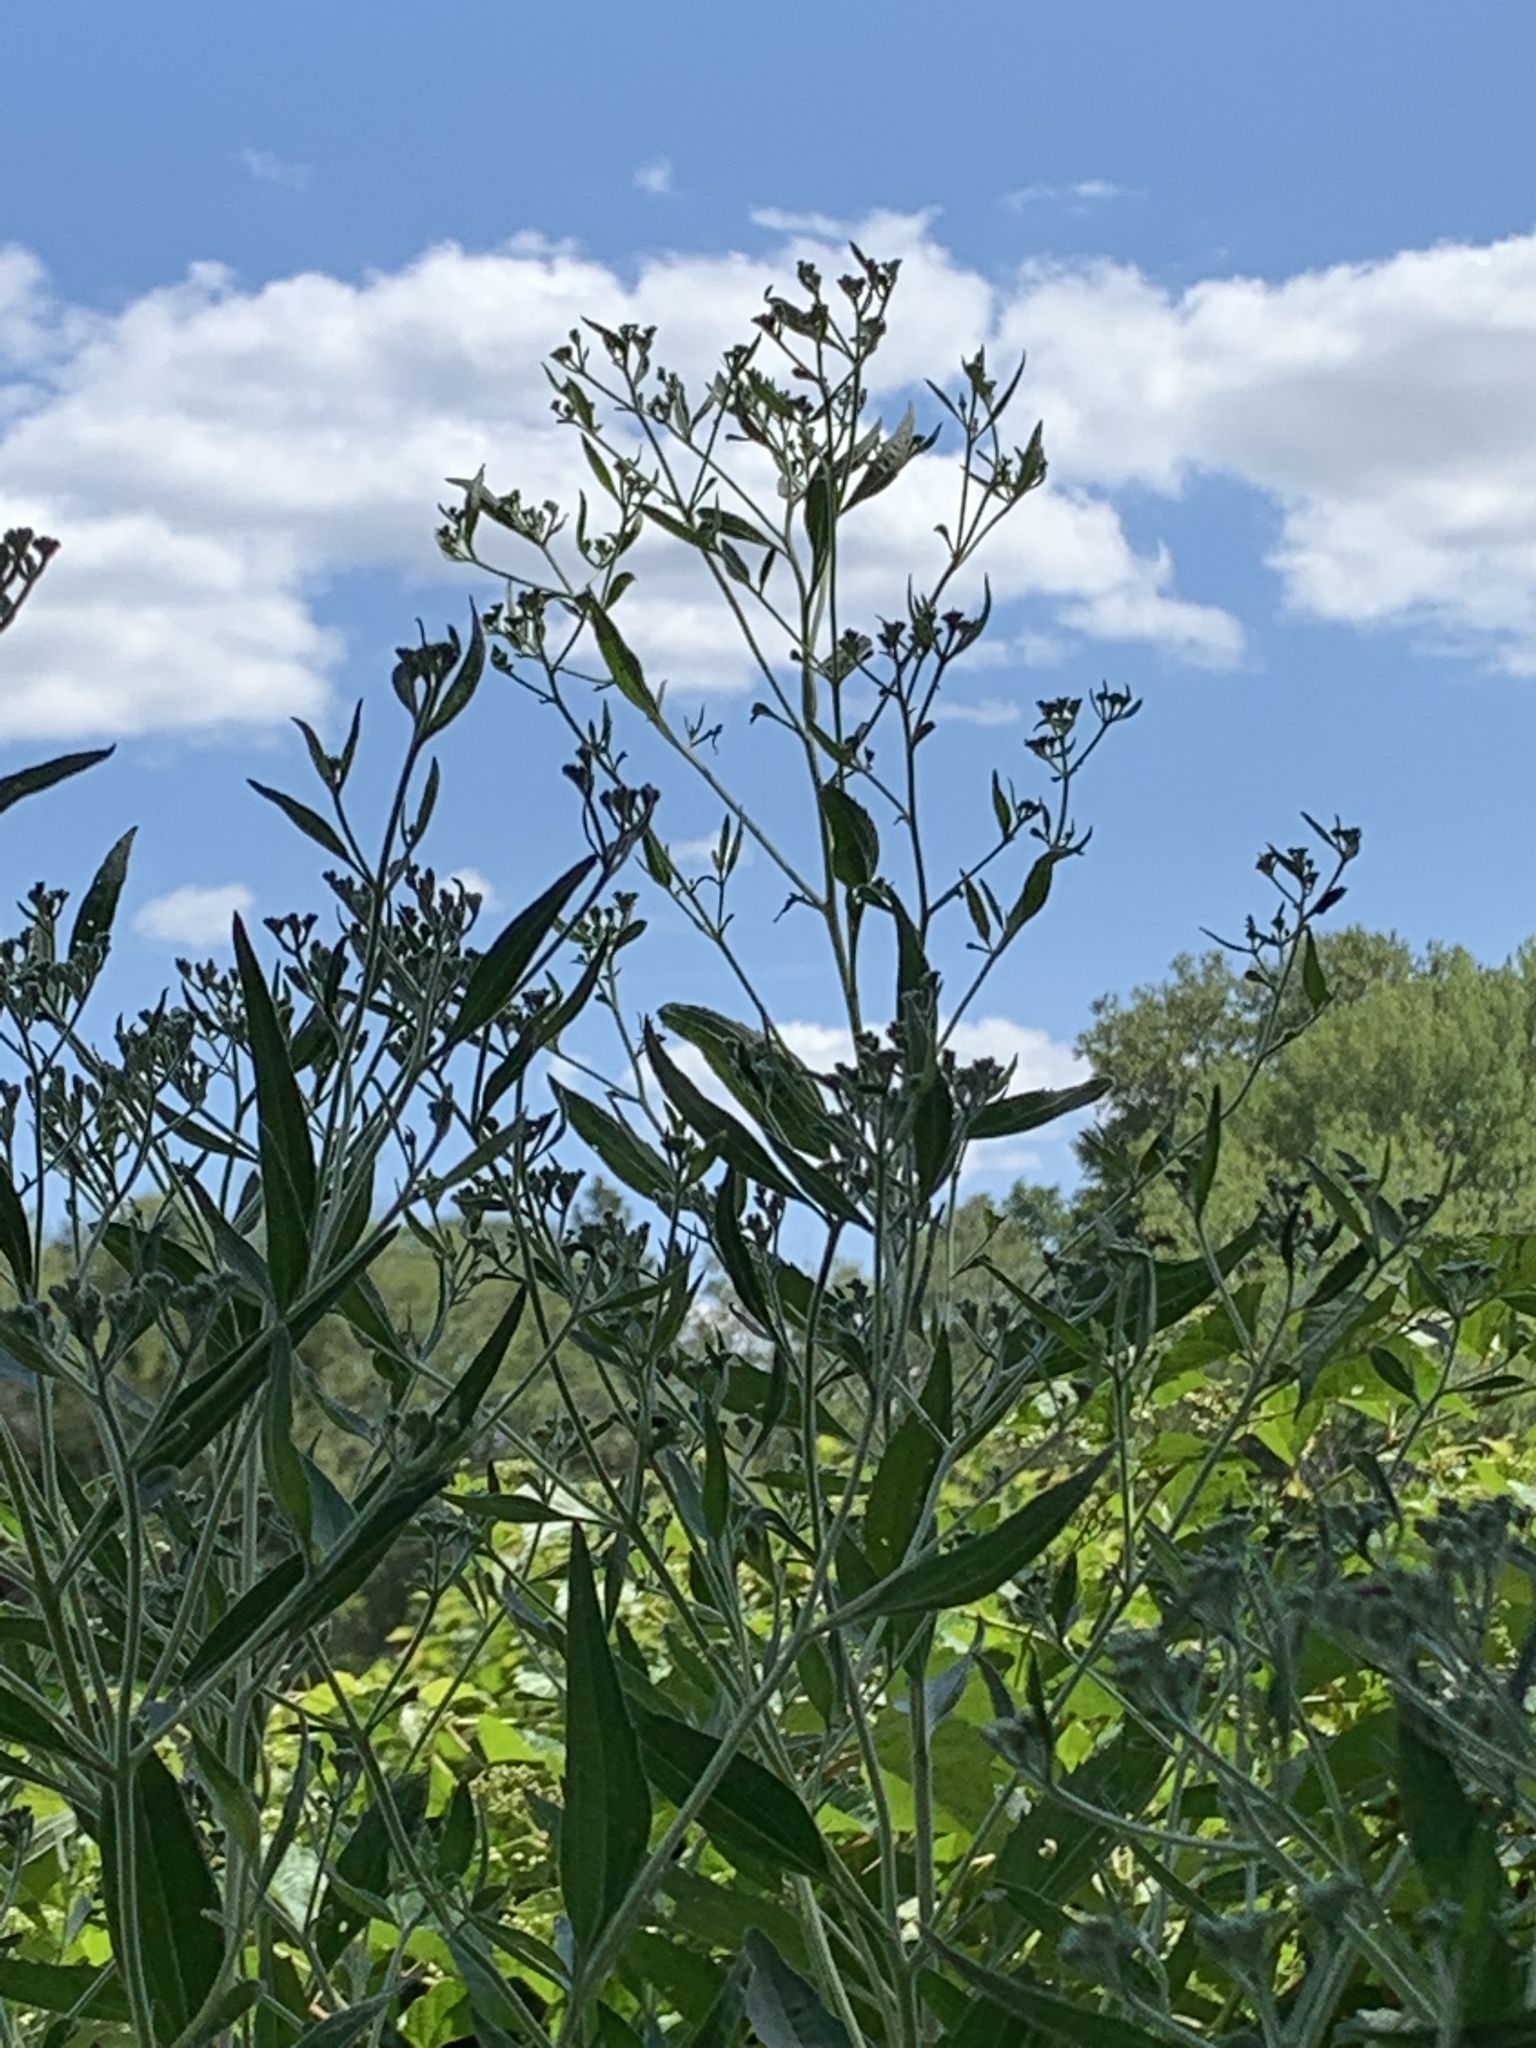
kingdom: Plantae
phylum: Tracheophyta
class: Magnoliopsida
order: Asterales
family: Asteraceae
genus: Eupatorium
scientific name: Eupatorium serotinum
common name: Late boneset
